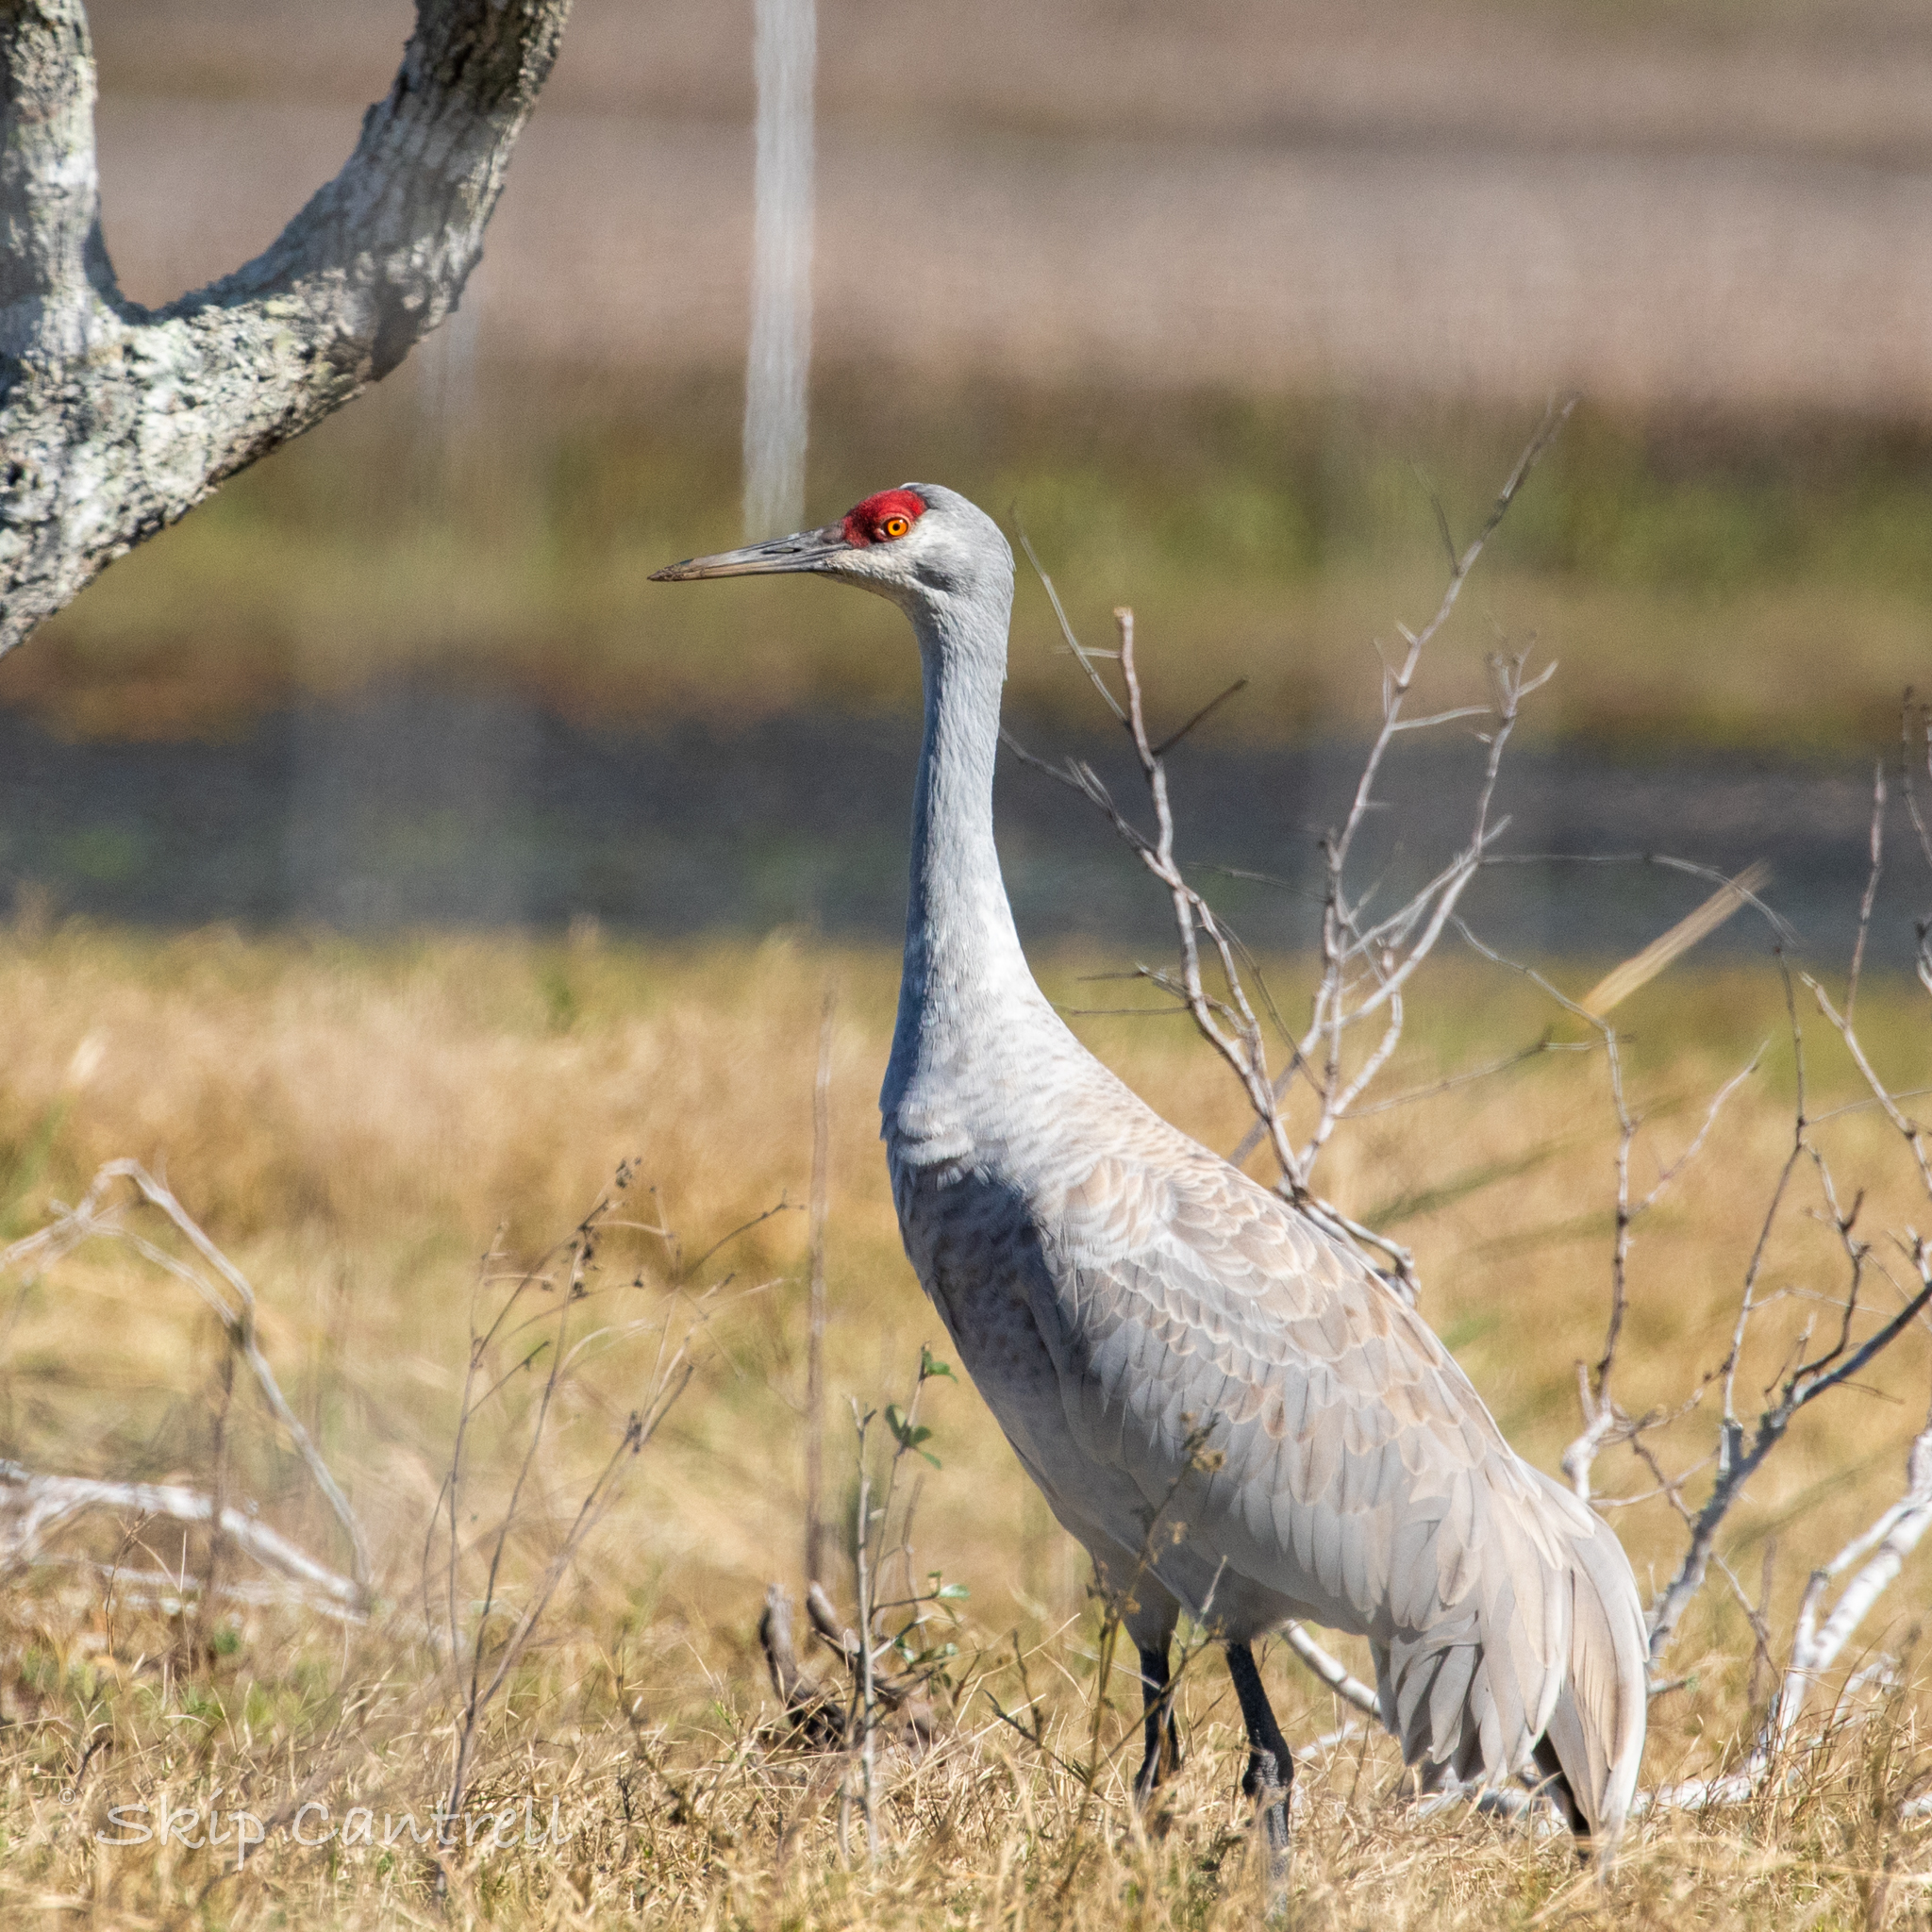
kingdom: Animalia
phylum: Chordata
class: Aves
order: Gruiformes
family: Gruidae
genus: Grus
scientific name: Grus canadensis
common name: Sandhill crane
